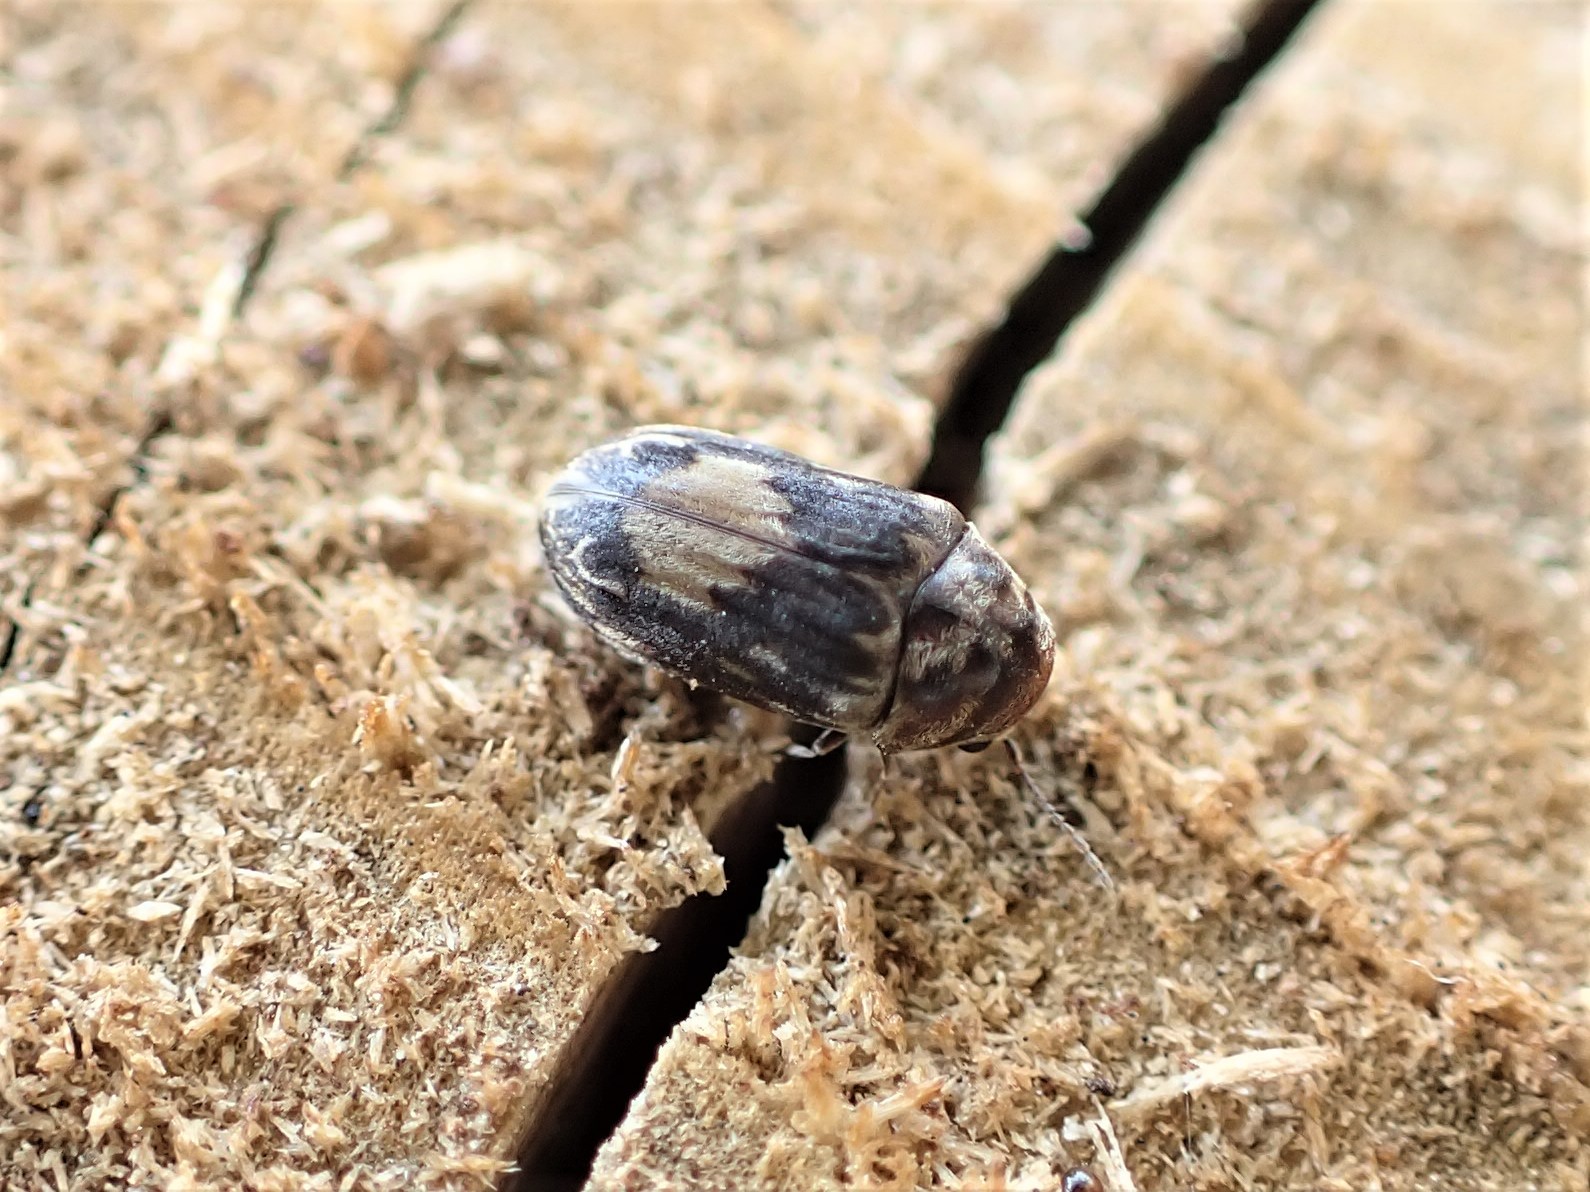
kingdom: Animalia
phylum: Arthropoda
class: Insecta
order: Coleoptera
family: Ptinidae
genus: Leanobium
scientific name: Leanobium
